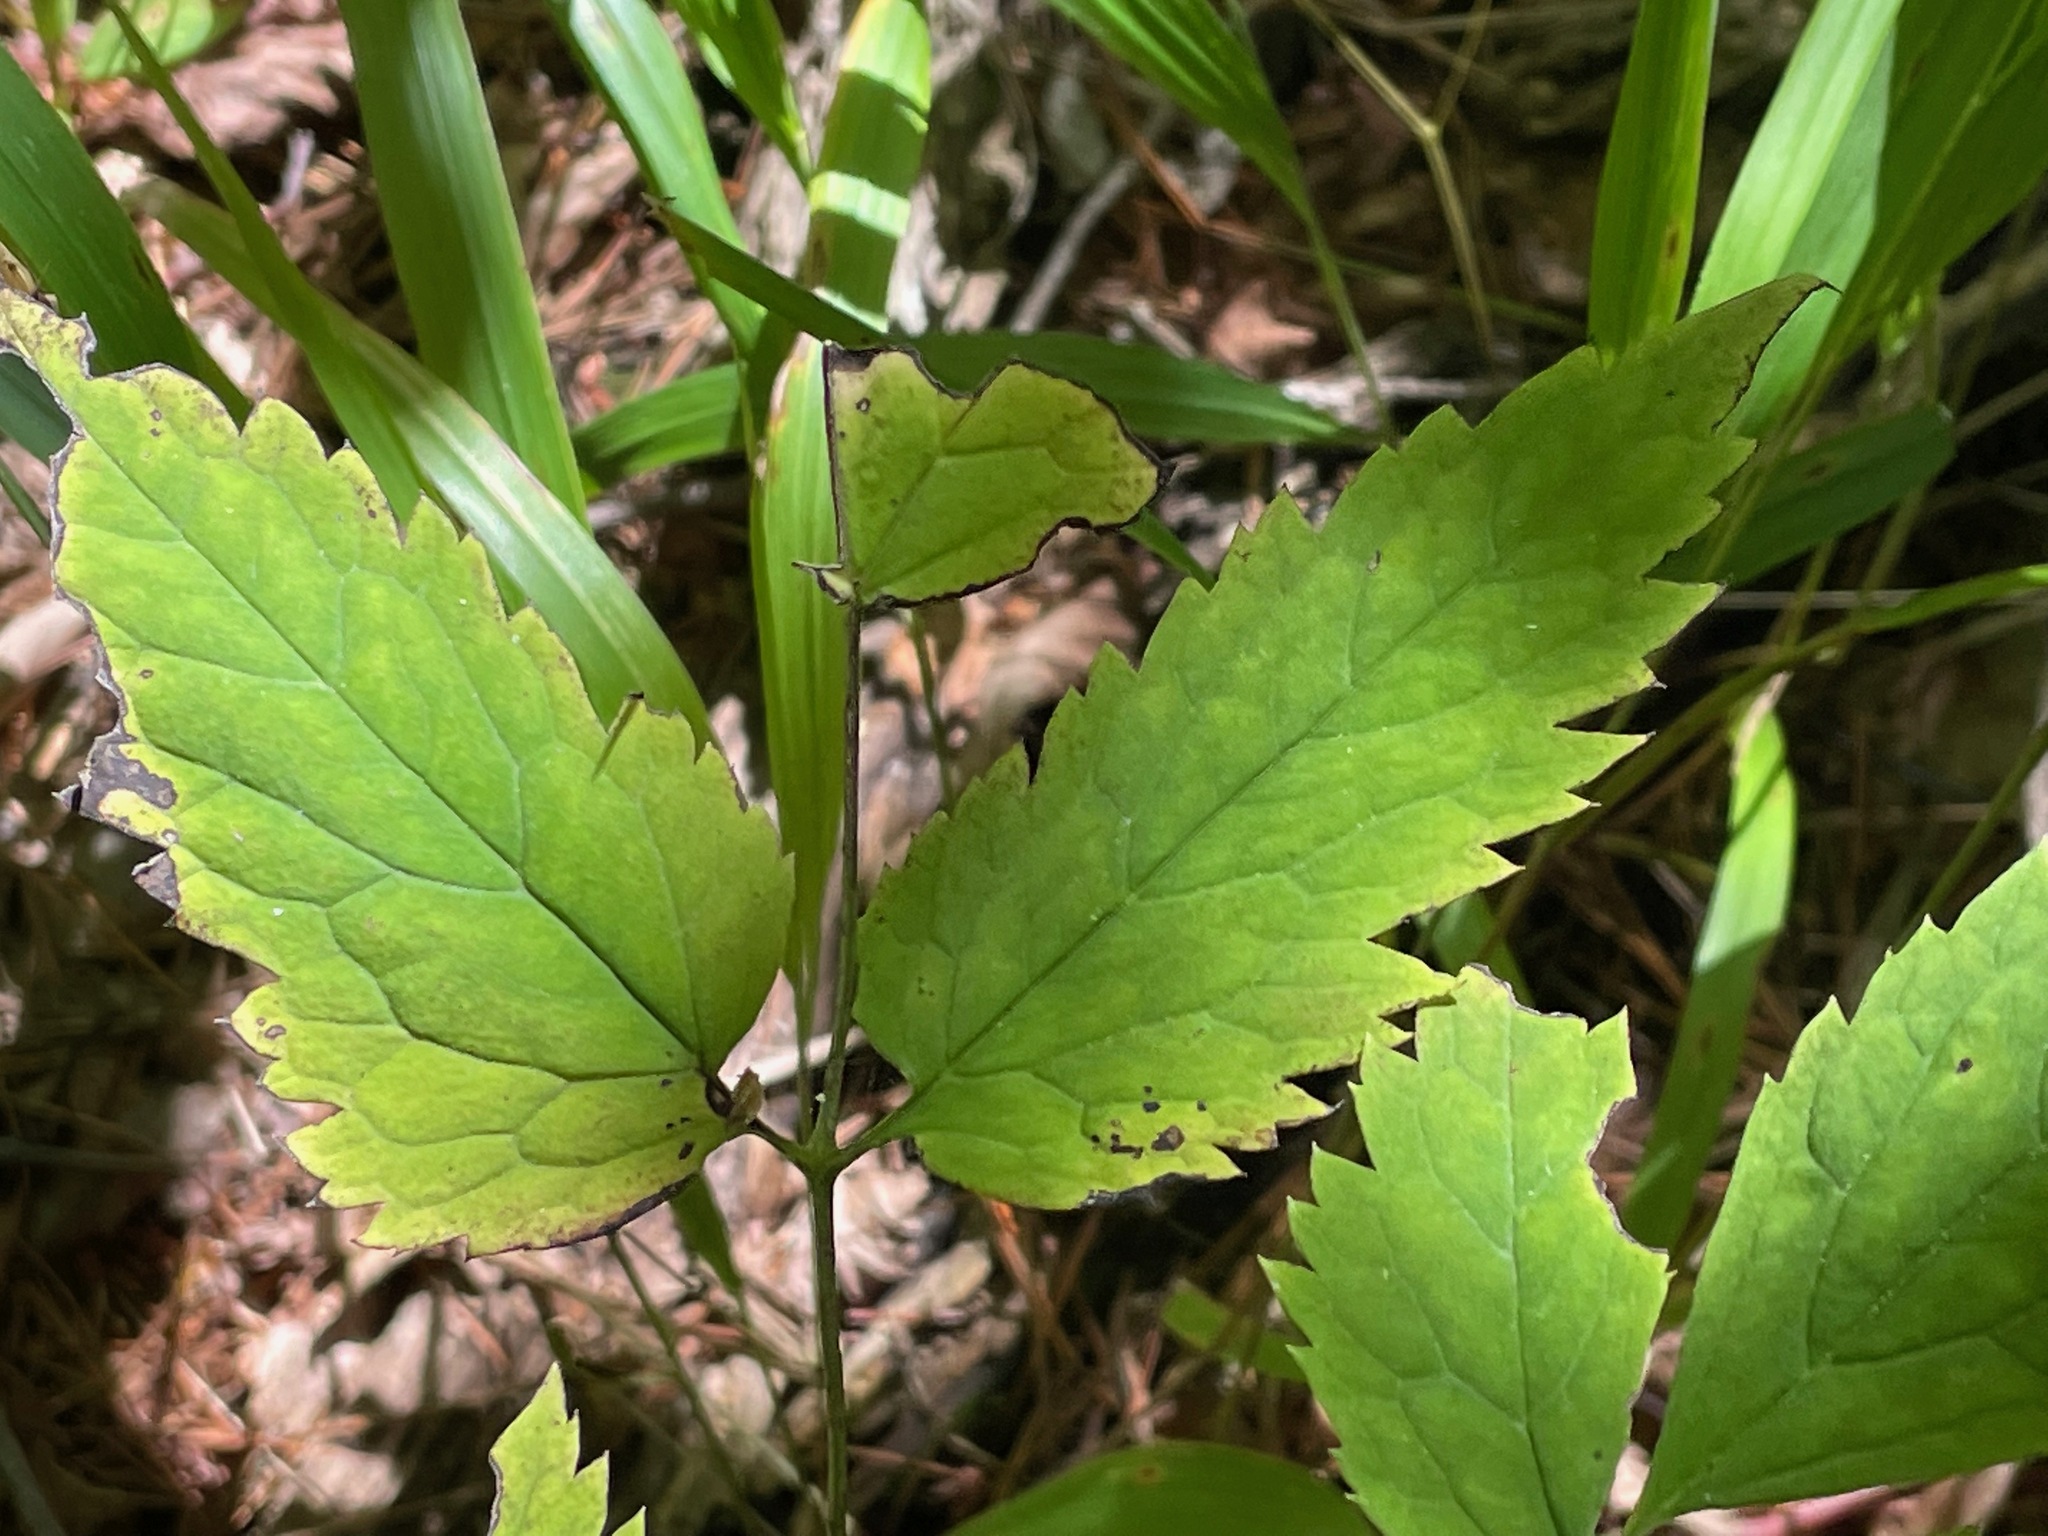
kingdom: Plantae
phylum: Tracheophyta
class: Magnoliopsida
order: Ranunculales
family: Ranunculaceae
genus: Actaea
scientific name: Actaea pachypoda
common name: Doll's-eyes
